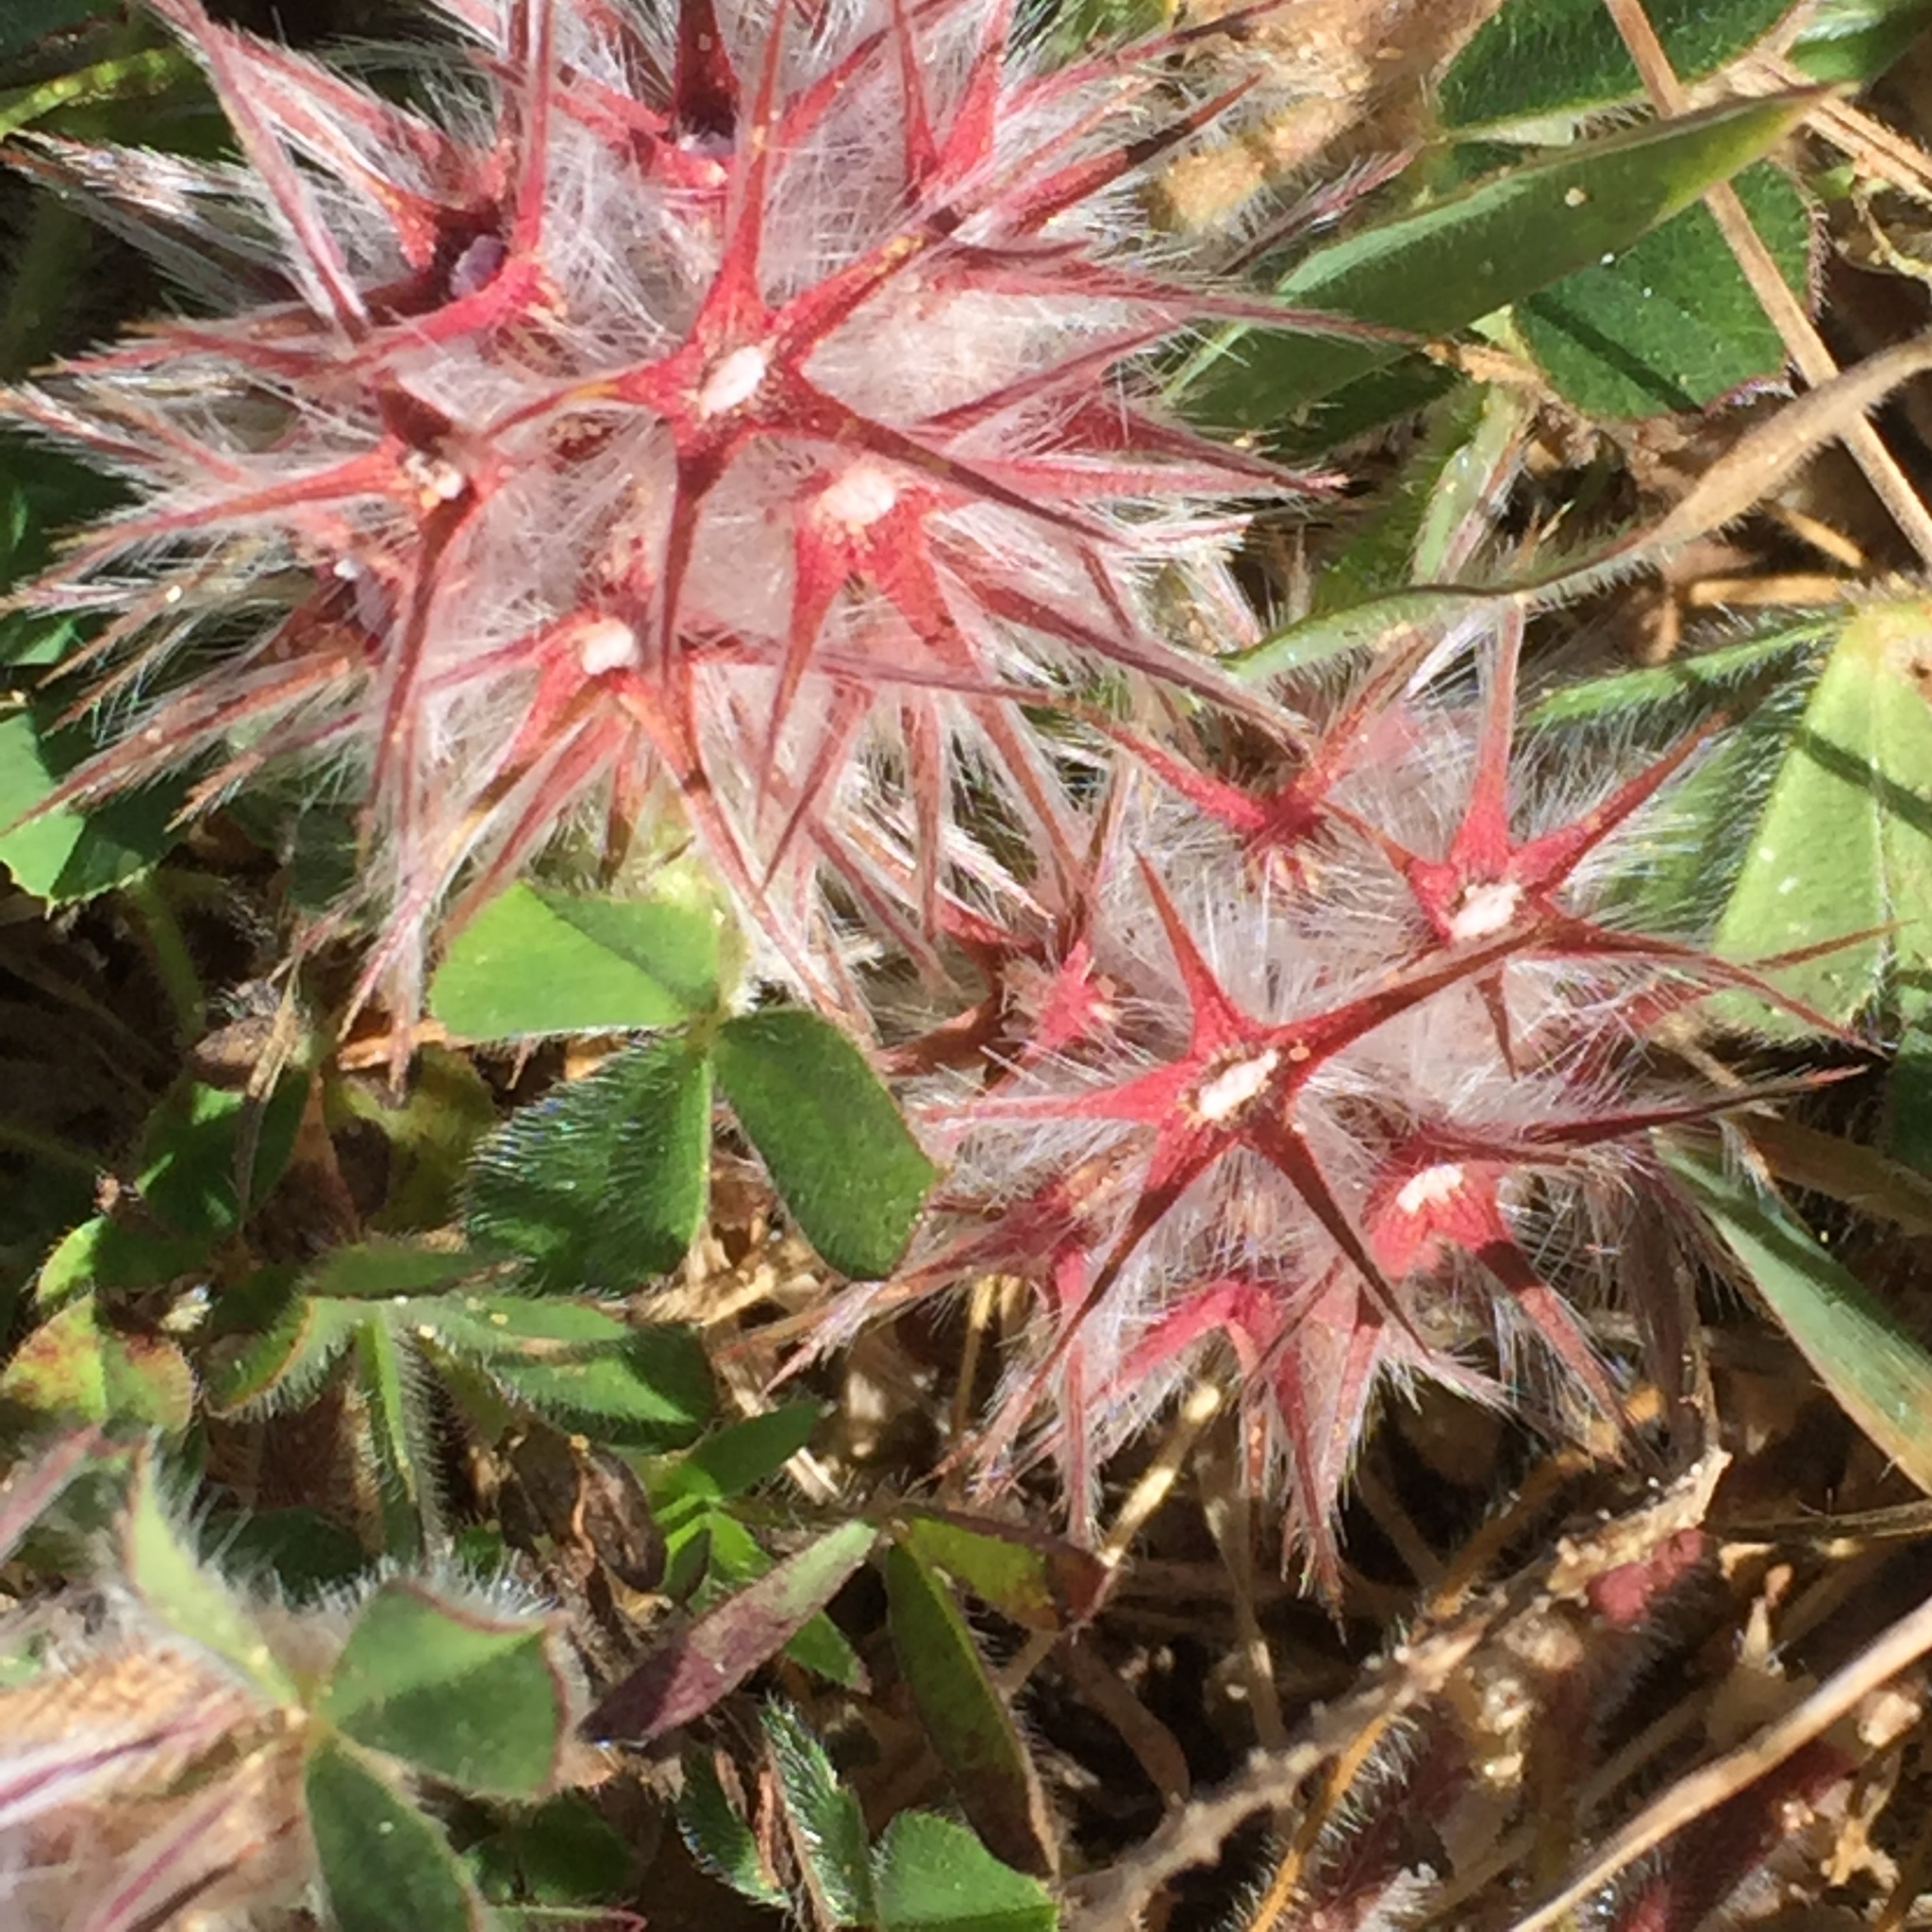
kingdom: Plantae
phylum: Tracheophyta
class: Magnoliopsida
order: Fabales
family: Fabaceae
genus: Trifolium
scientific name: Trifolium stellatum
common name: Starry clover
